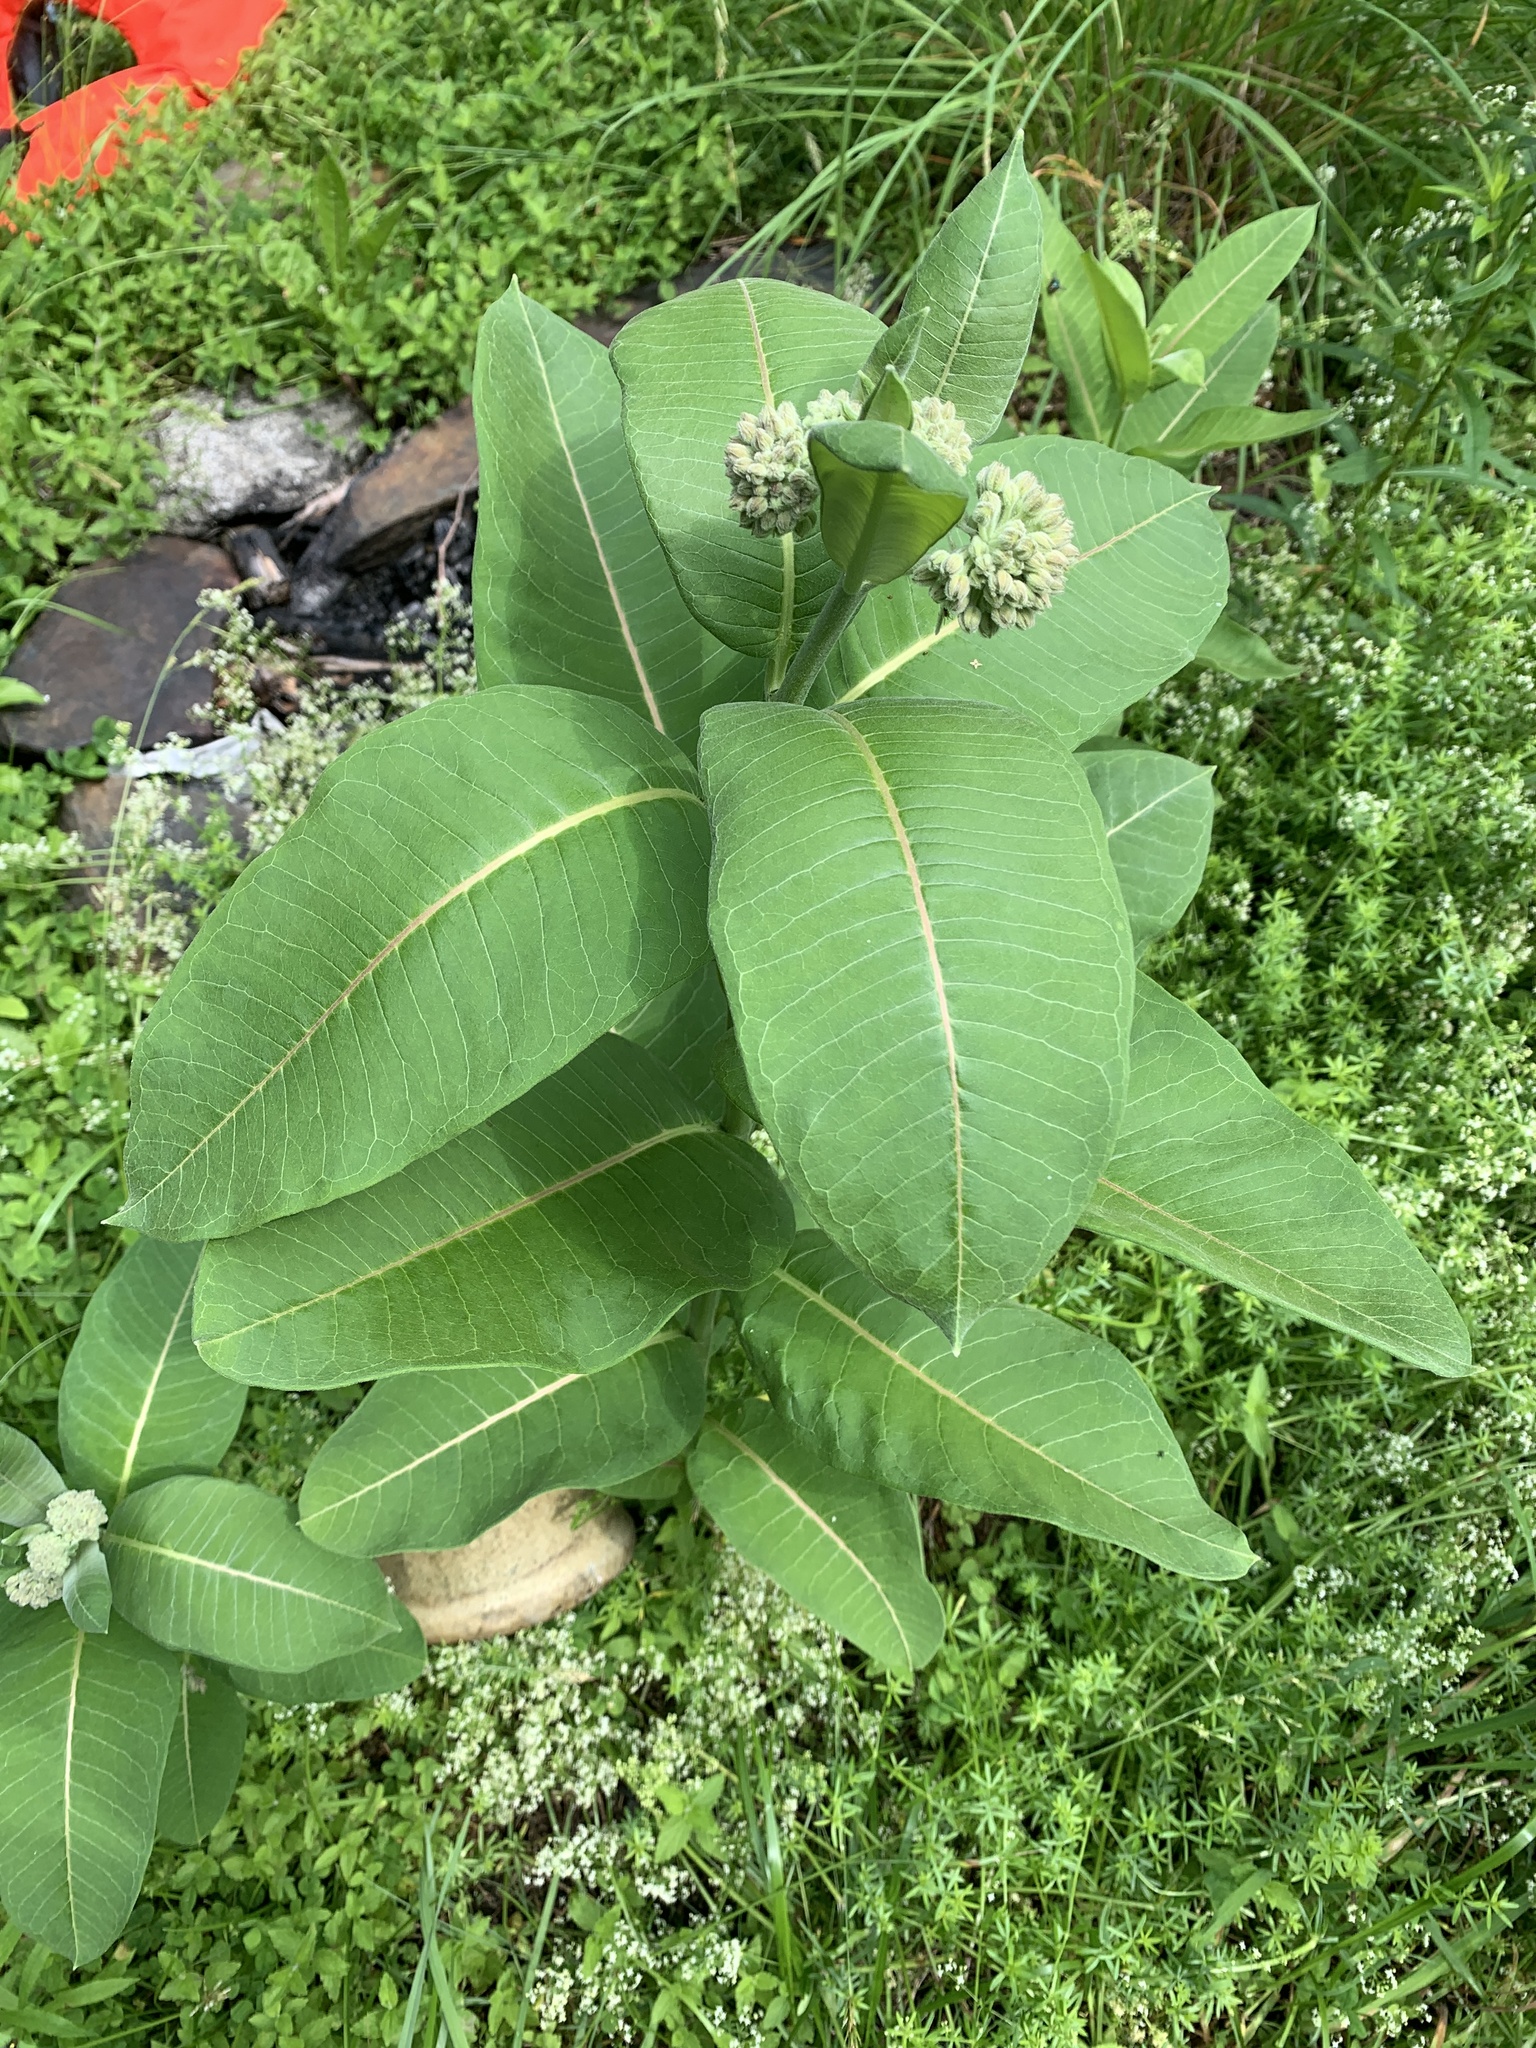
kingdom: Plantae
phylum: Tracheophyta
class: Magnoliopsida
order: Gentianales
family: Apocynaceae
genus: Asclepias
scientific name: Asclepias syriaca
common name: Common milkweed
